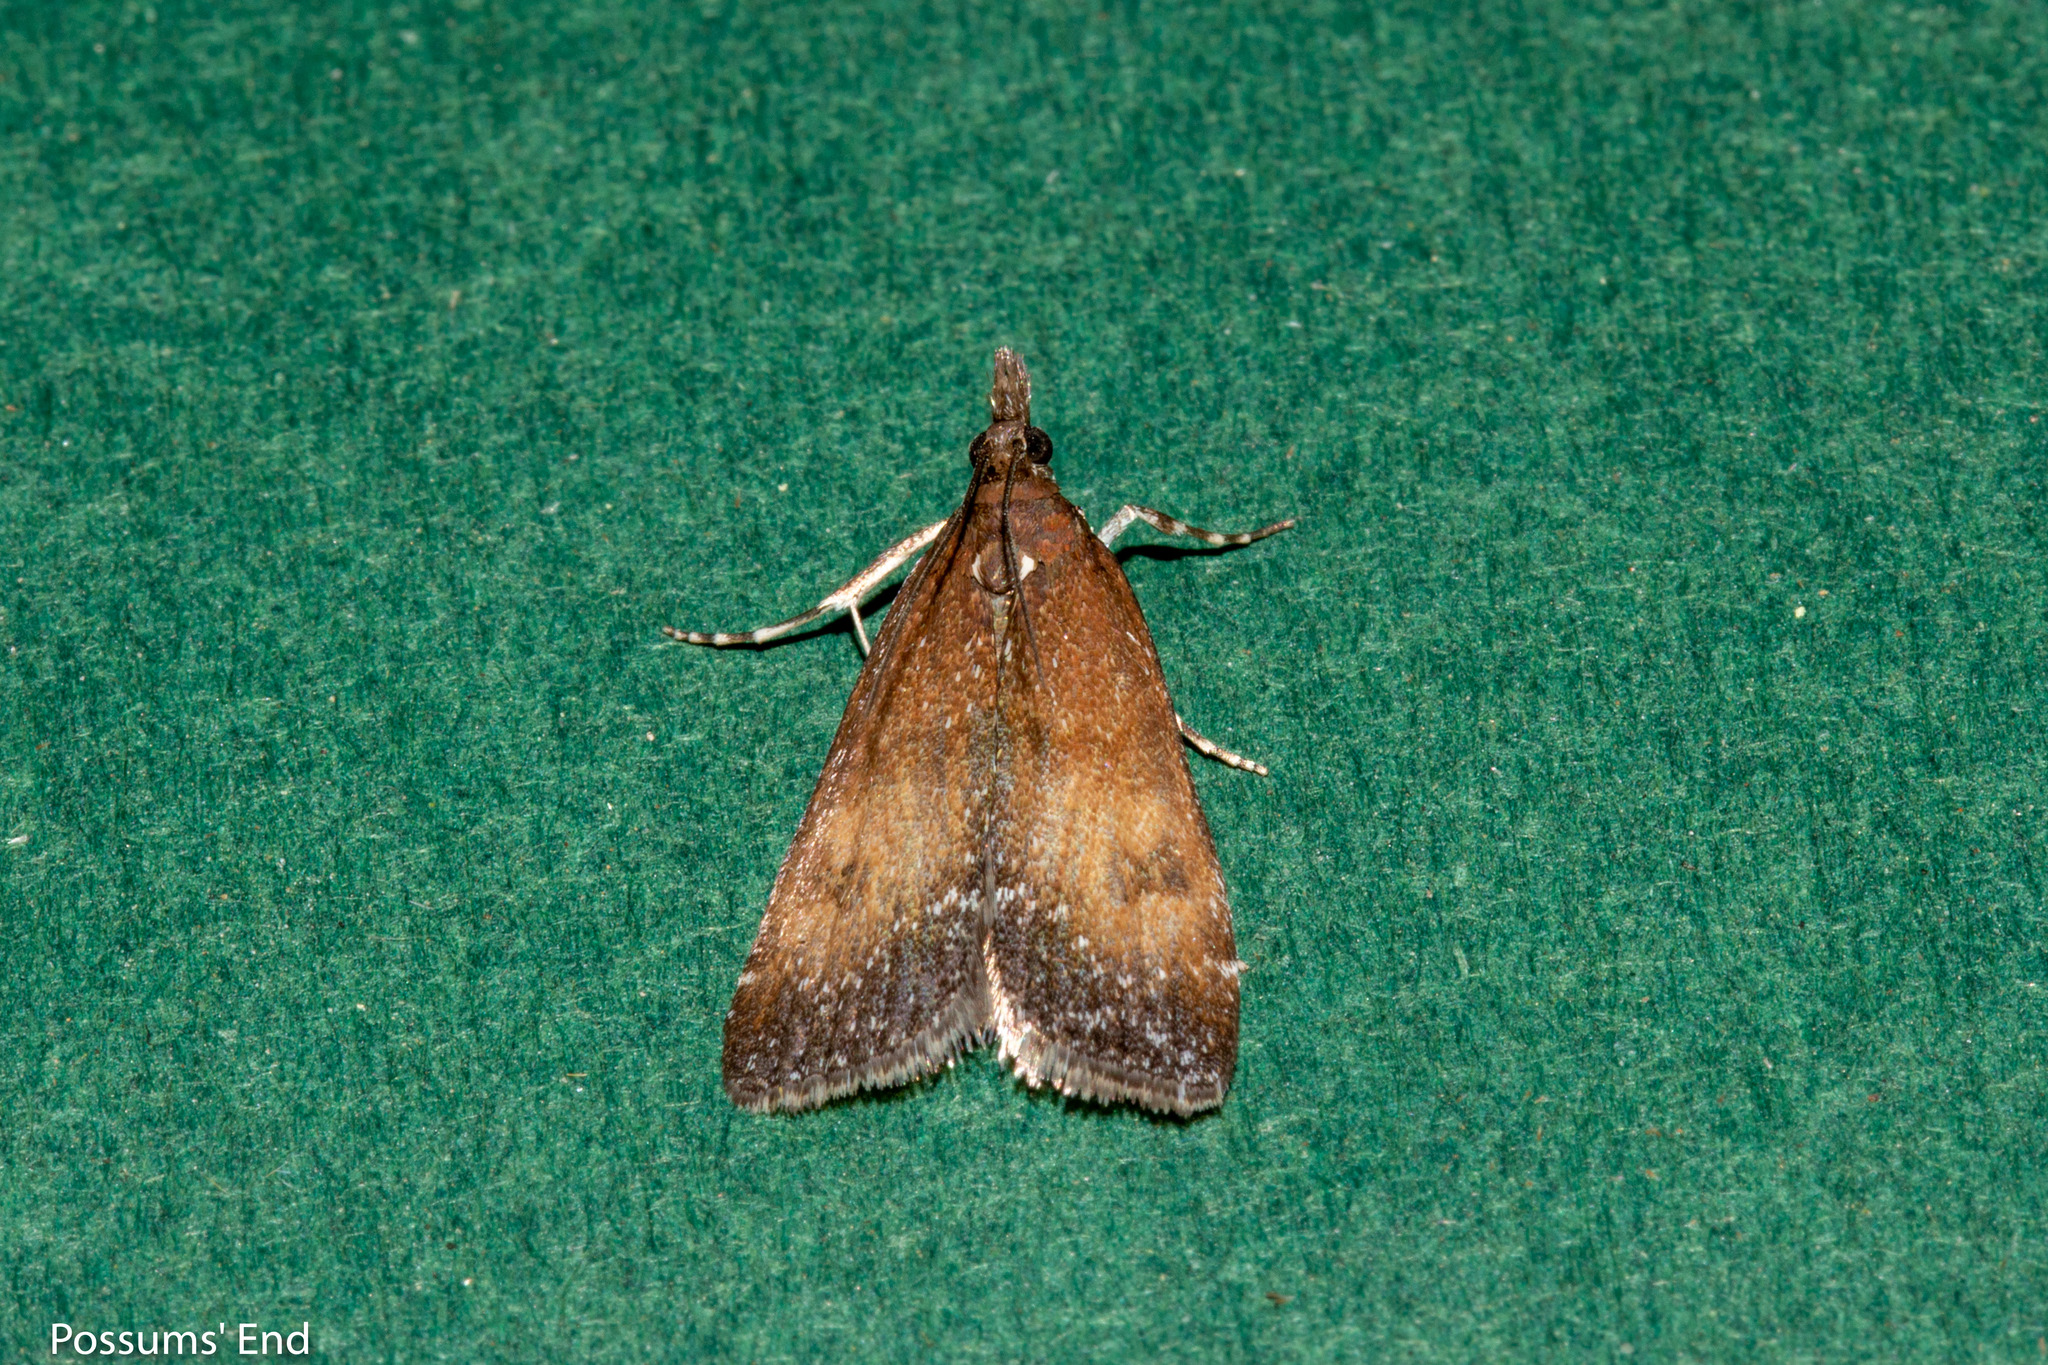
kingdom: Animalia
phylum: Arthropoda
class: Insecta
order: Lepidoptera
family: Crambidae
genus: Eudonia
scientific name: Eudonia asterisca
